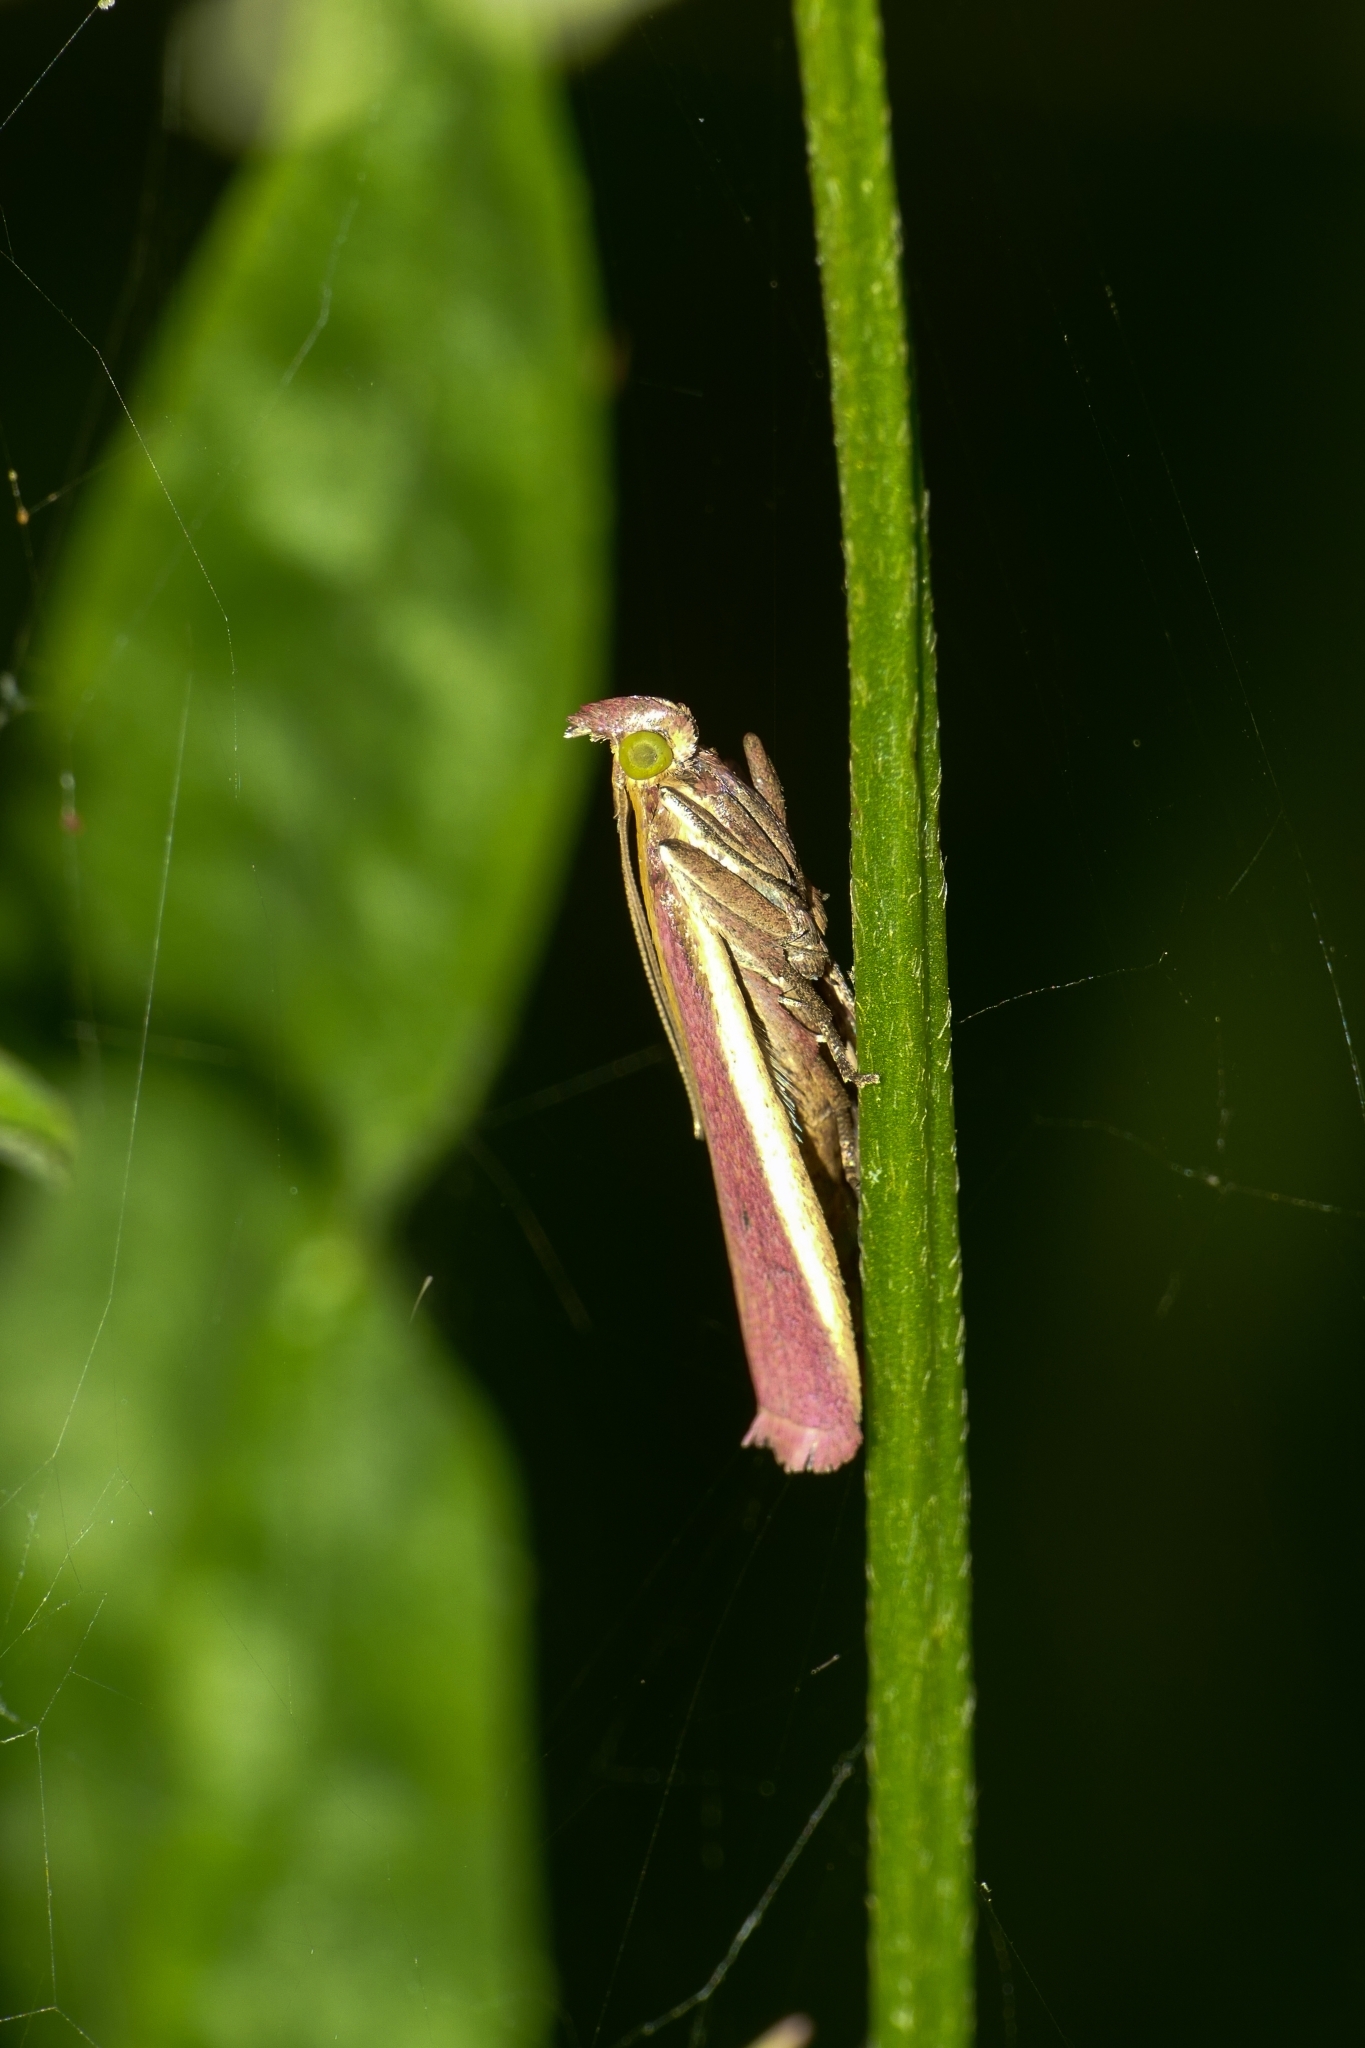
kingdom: Animalia
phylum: Arthropoda
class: Insecta
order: Lepidoptera
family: Pyralidae
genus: Oncocera
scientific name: Oncocera semirubella
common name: Rosy-striped knot-horn
